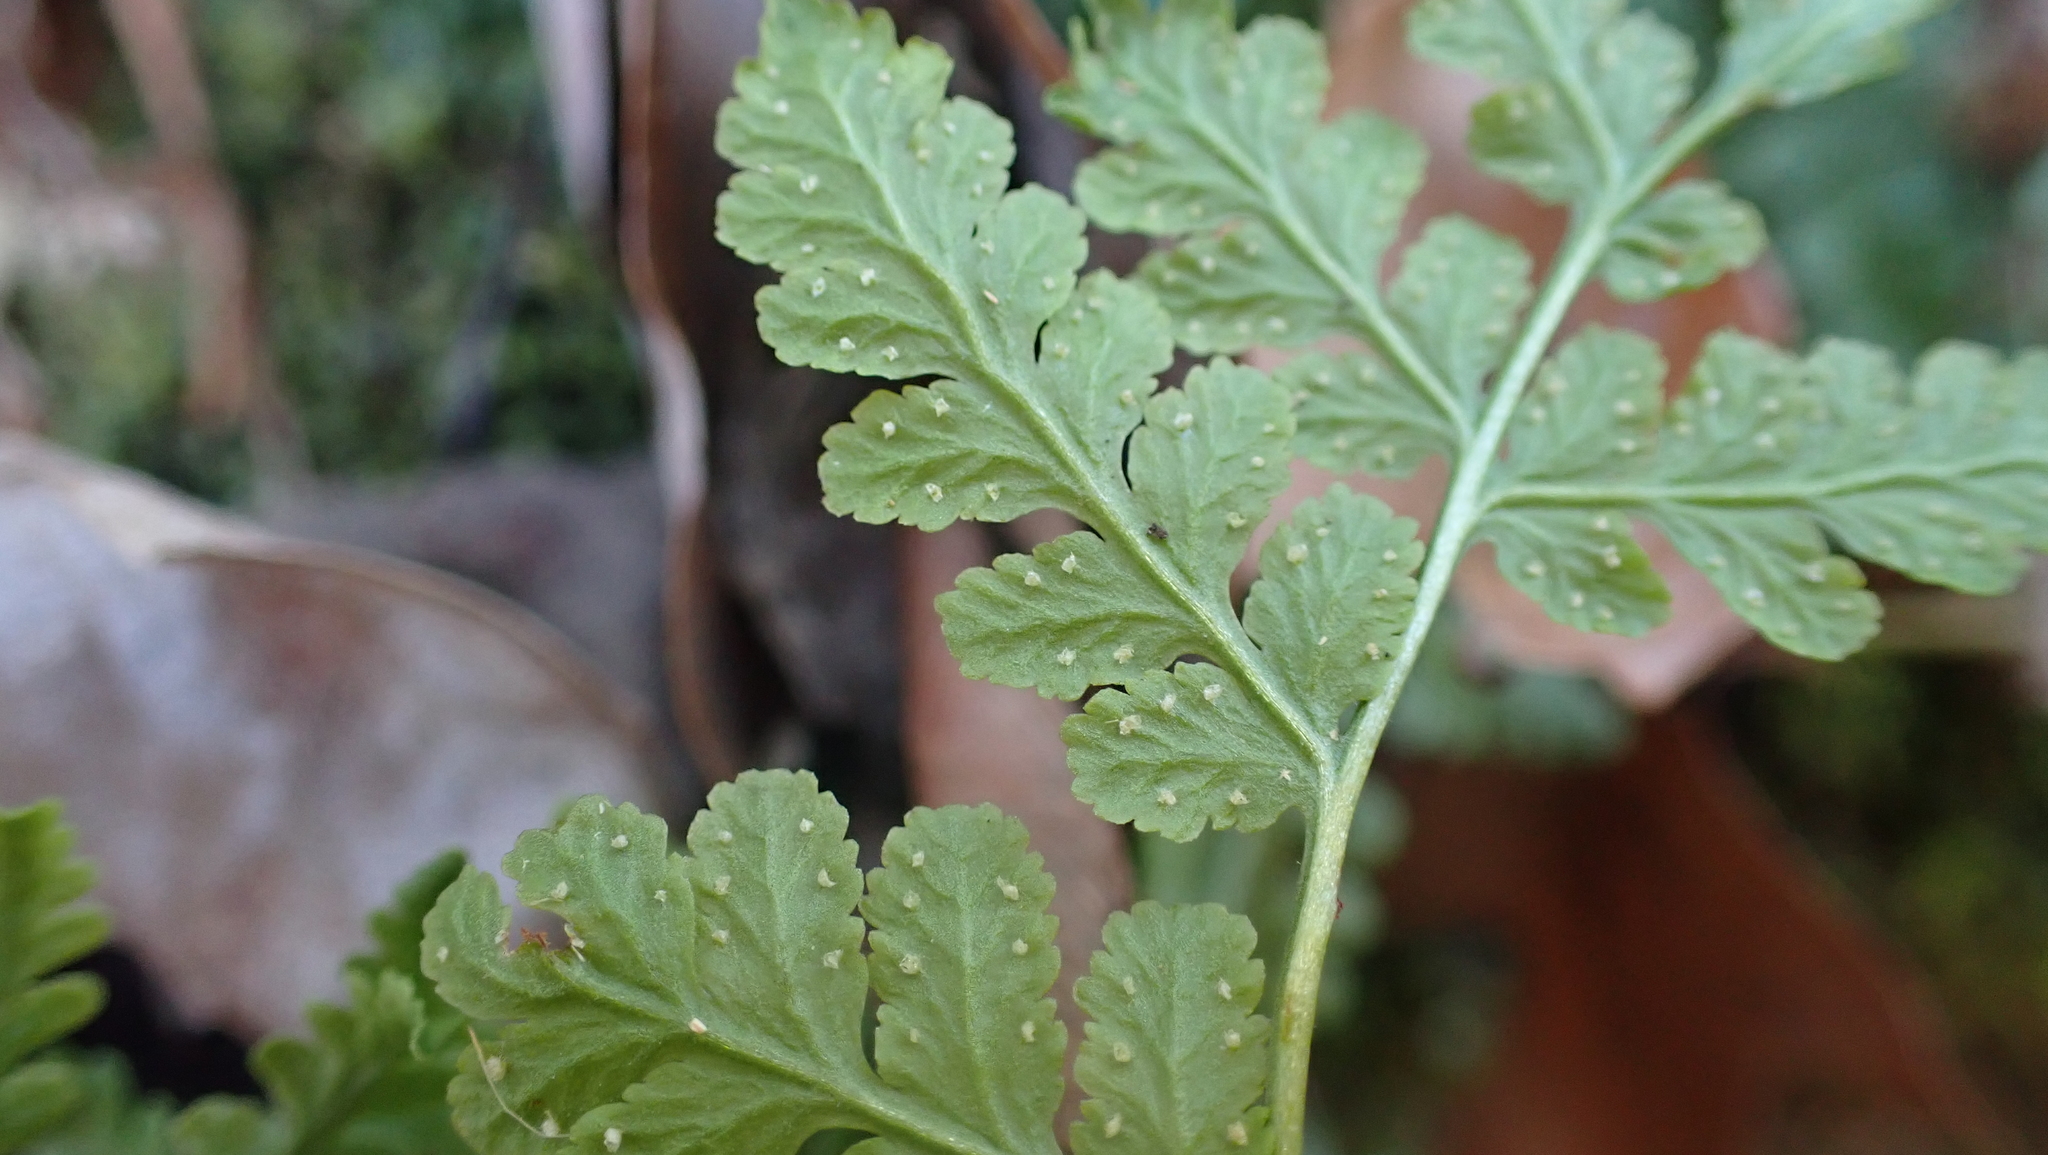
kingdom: Plantae
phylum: Tracheophyta
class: Polypodiopsida
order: Polypodiales
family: Woodsiaceae
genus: Physematium
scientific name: Physematium obtusum
